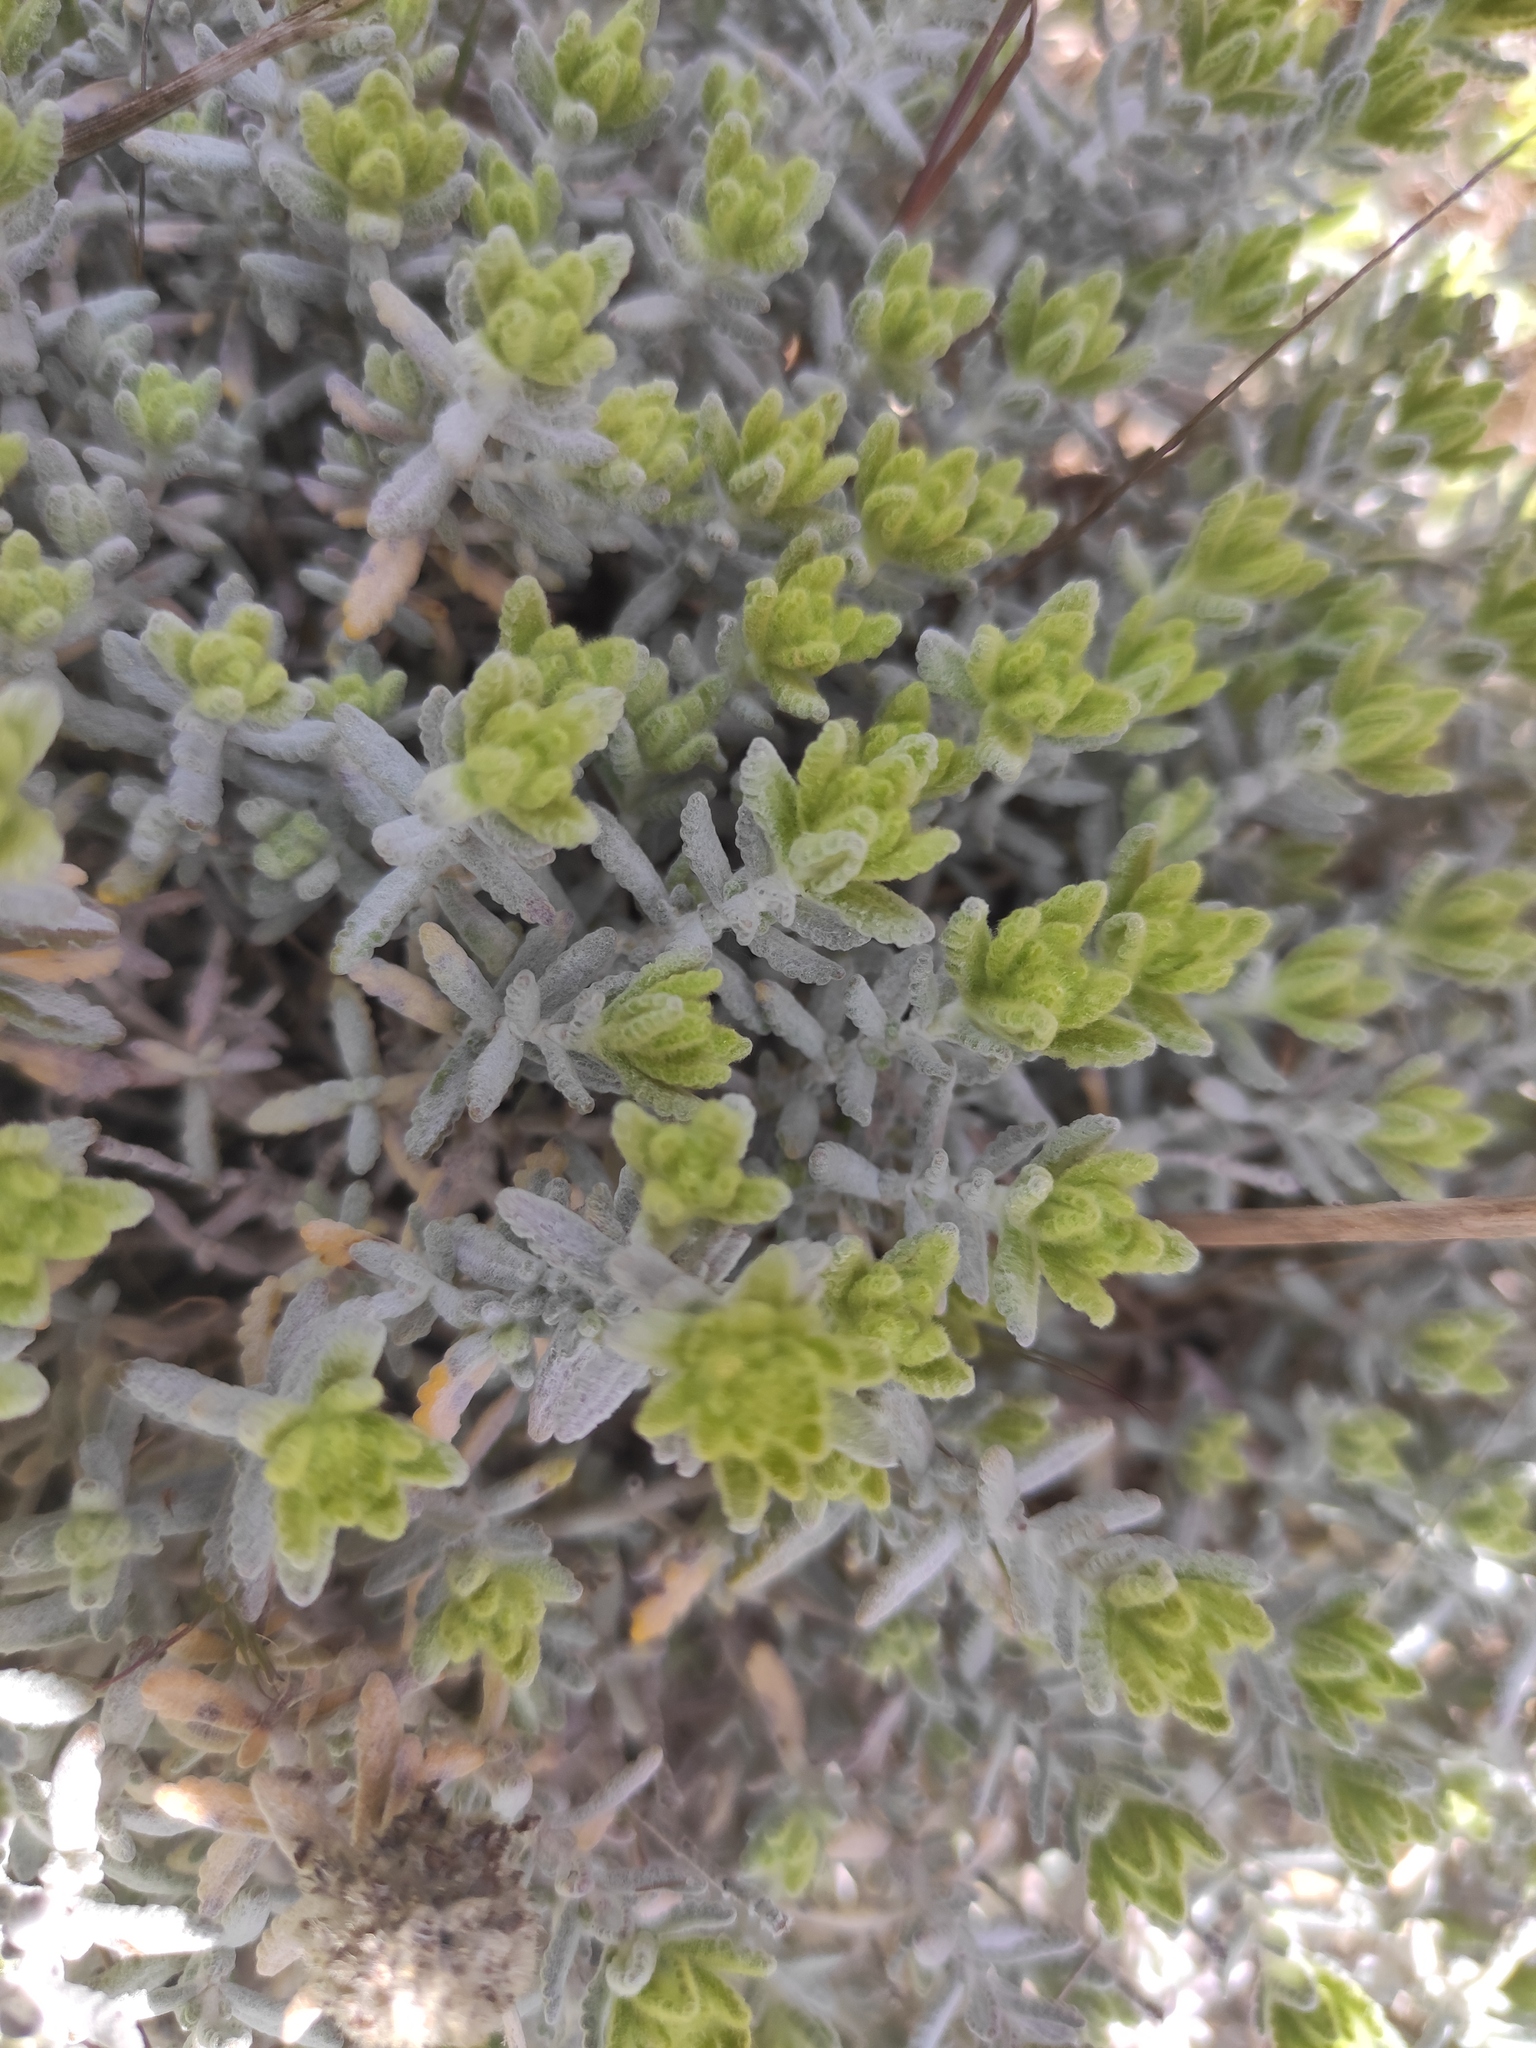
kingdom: Plantae
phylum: Tracheophyta
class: Magnoliopsida
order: Lamiales
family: Lamiaceae
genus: Teucrium
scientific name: Teucrium aureum
